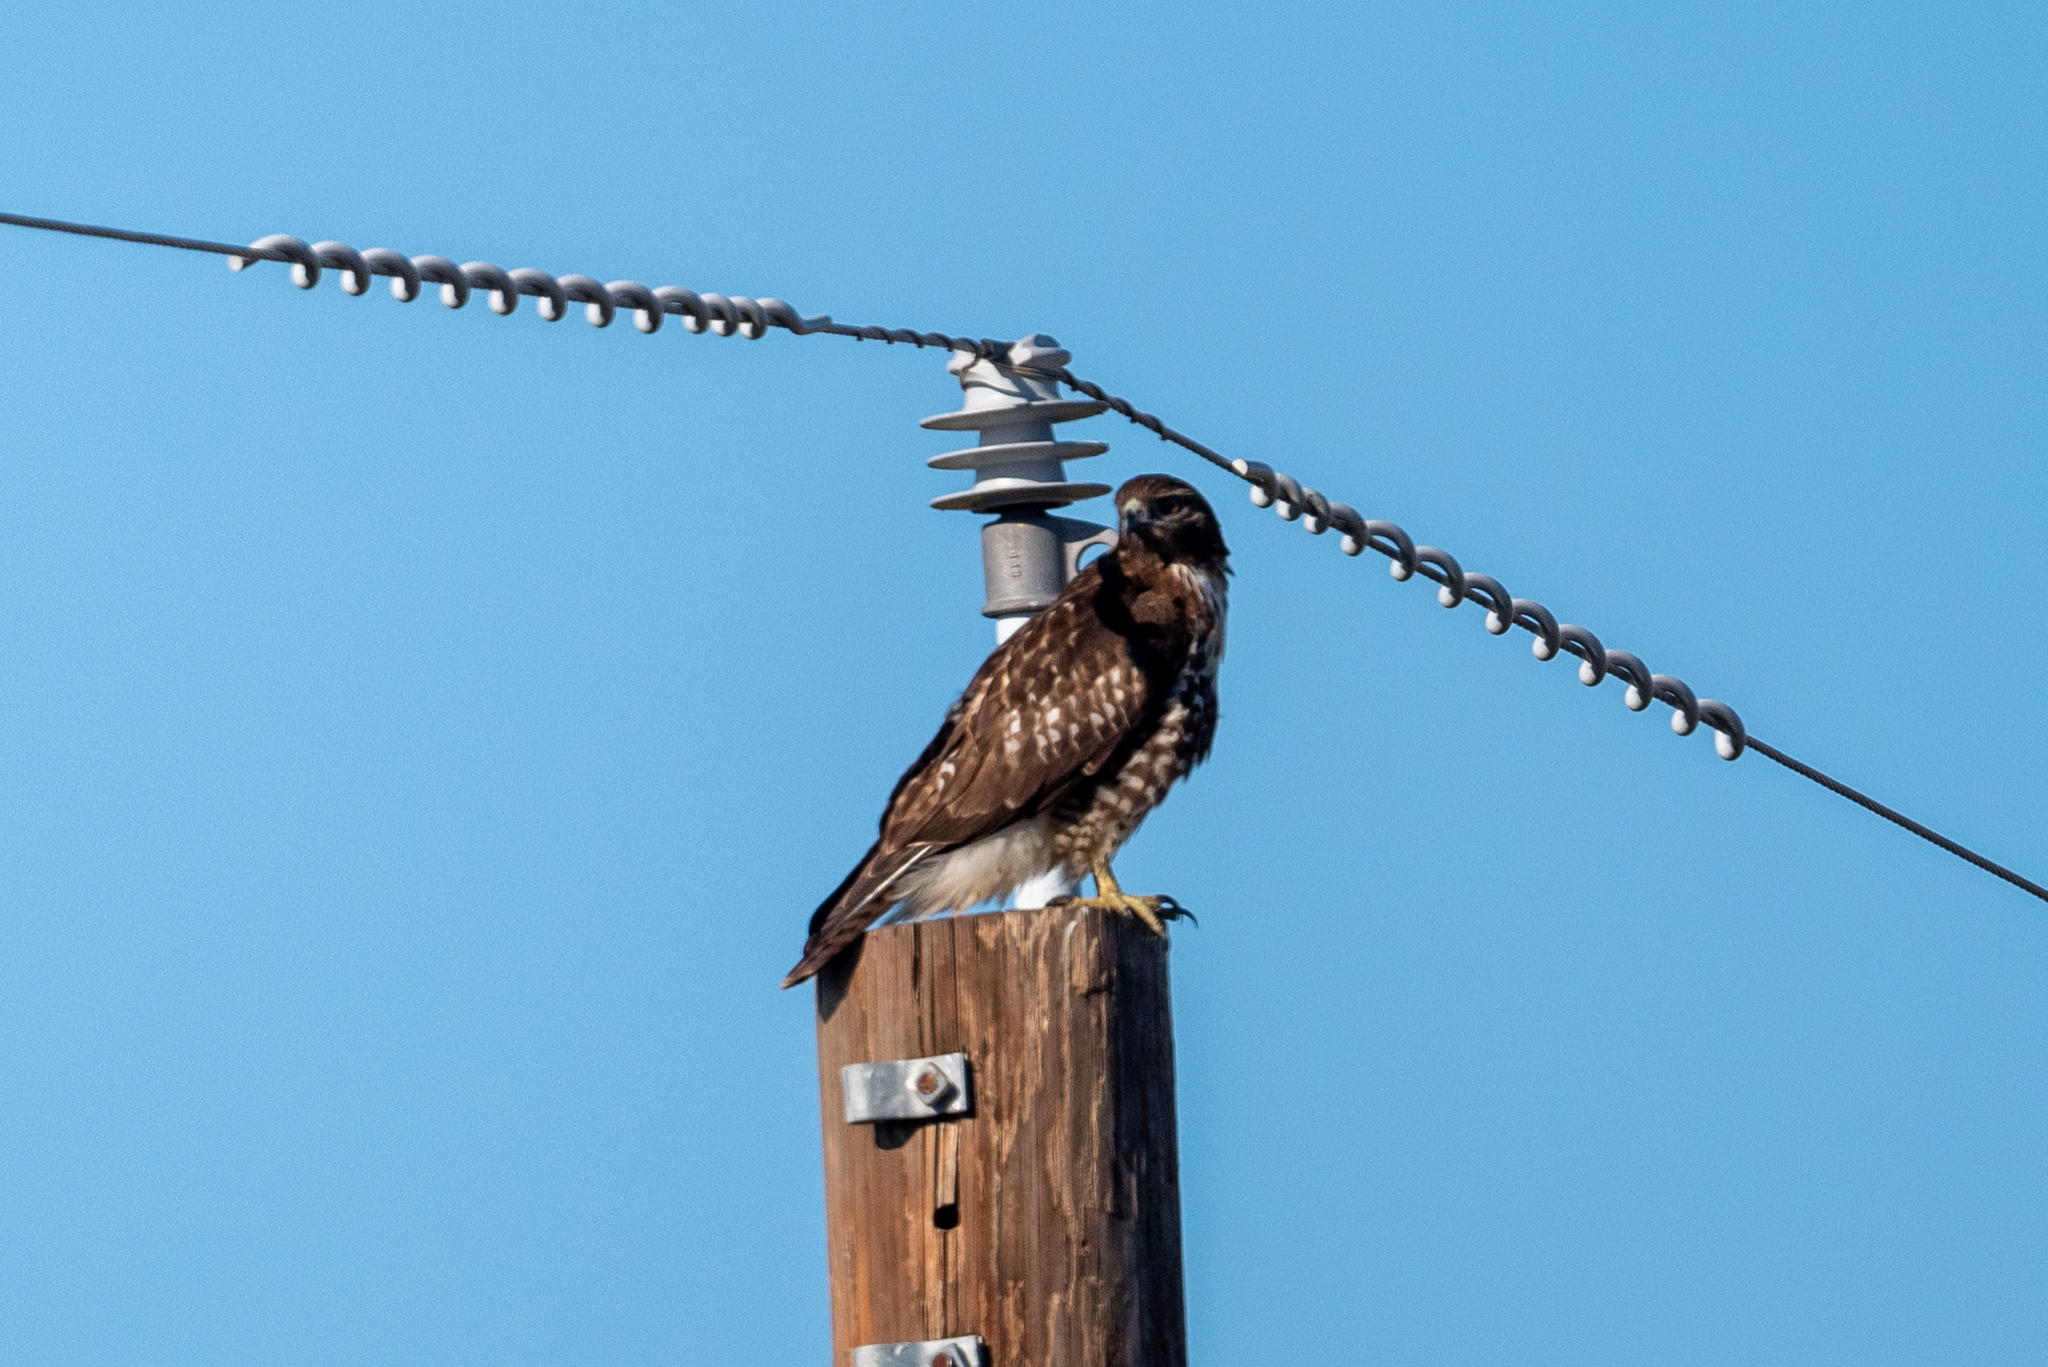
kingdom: Animalia
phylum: Chordata
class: Aves
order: Accipitriformes
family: Accipitridae
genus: Buteo
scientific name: Buteo jamaicensis
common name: Red-tailed hawk
